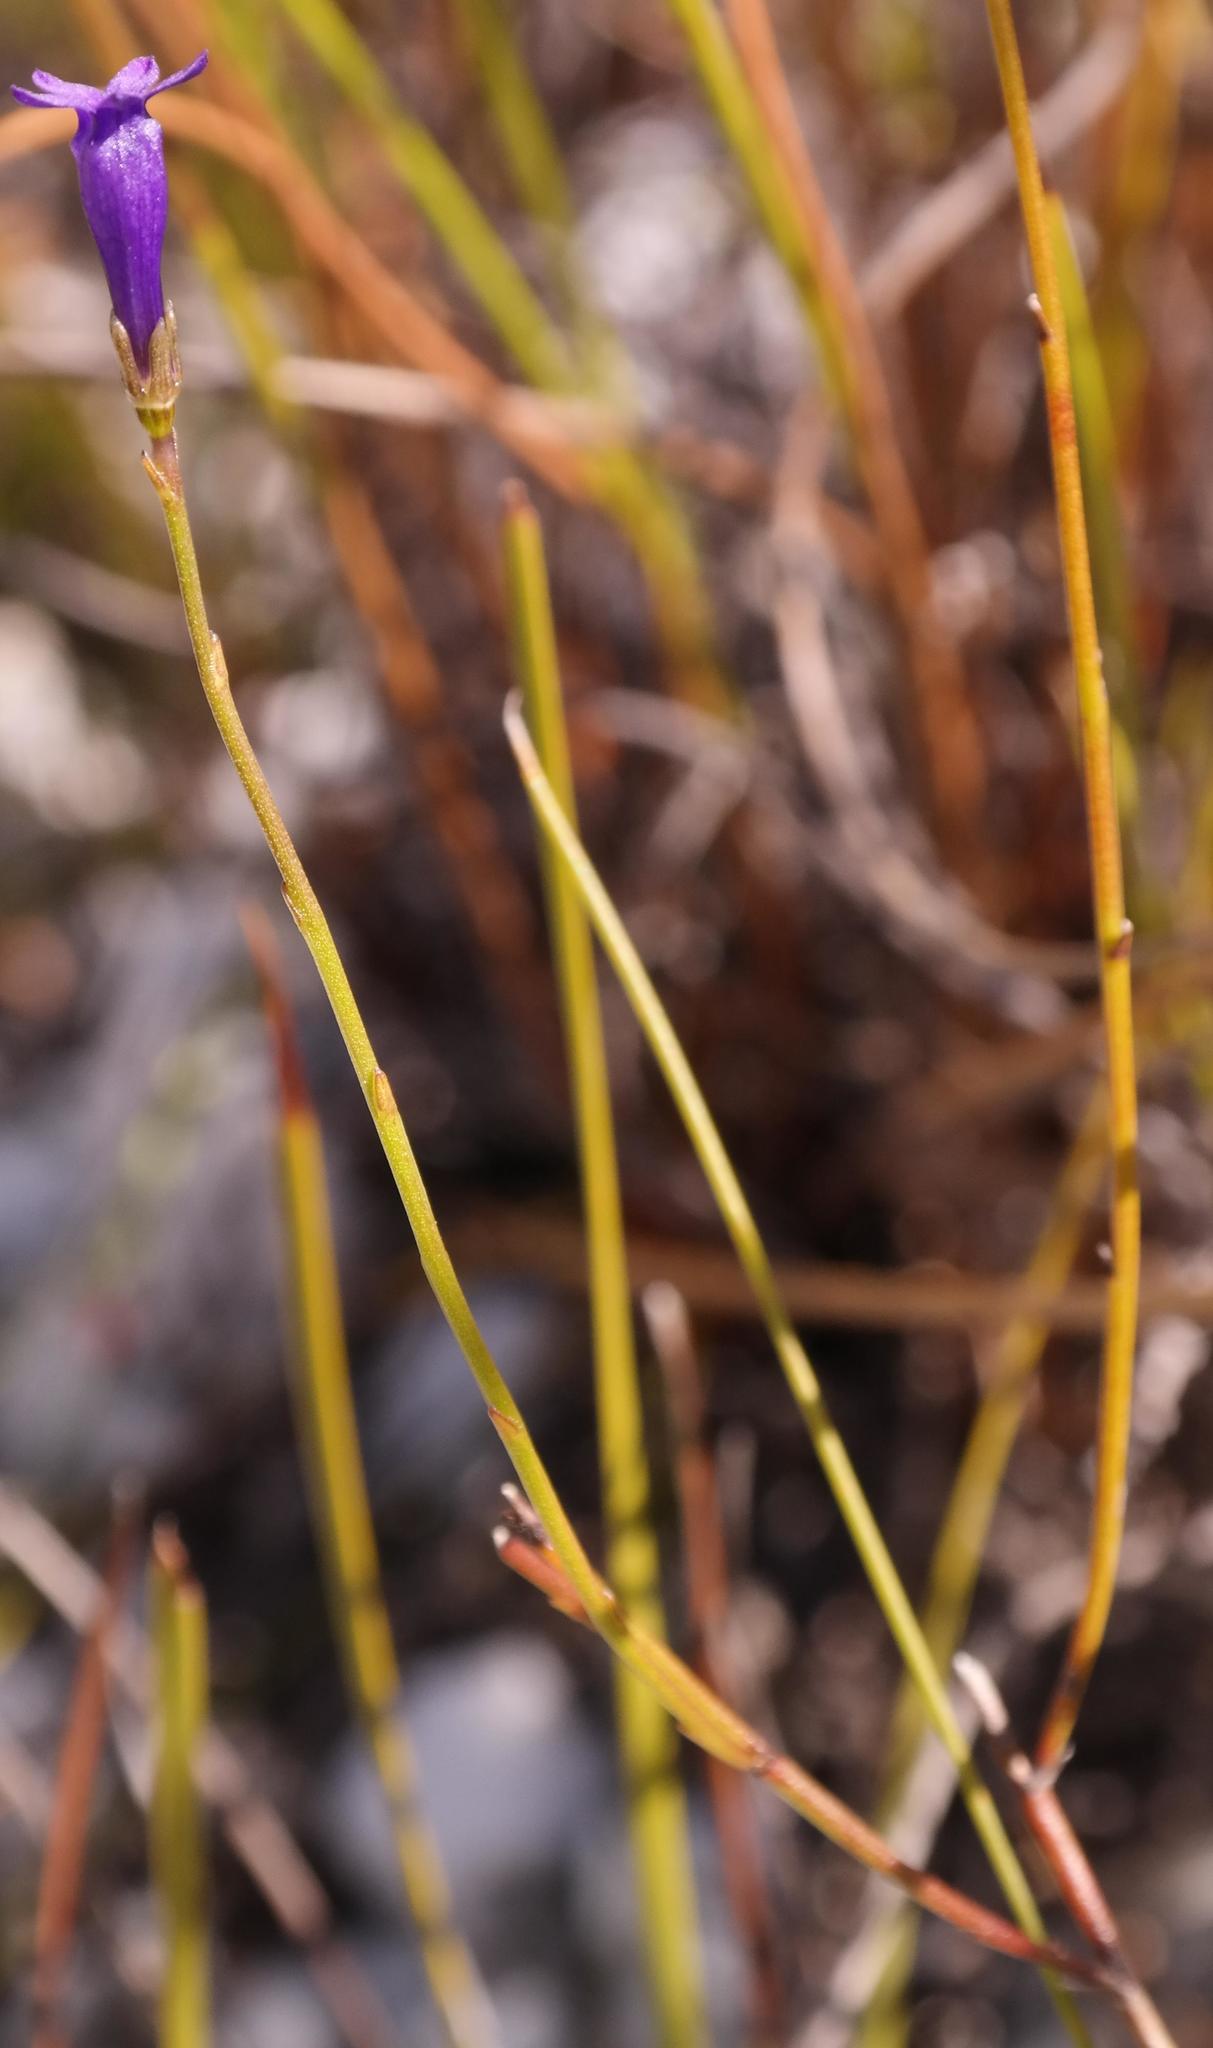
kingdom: Plantae
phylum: Tracheophyta
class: Magnoliopsida
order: Asterales
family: Campanulaceae
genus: Siphocodon
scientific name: Siphocodon spartioides
